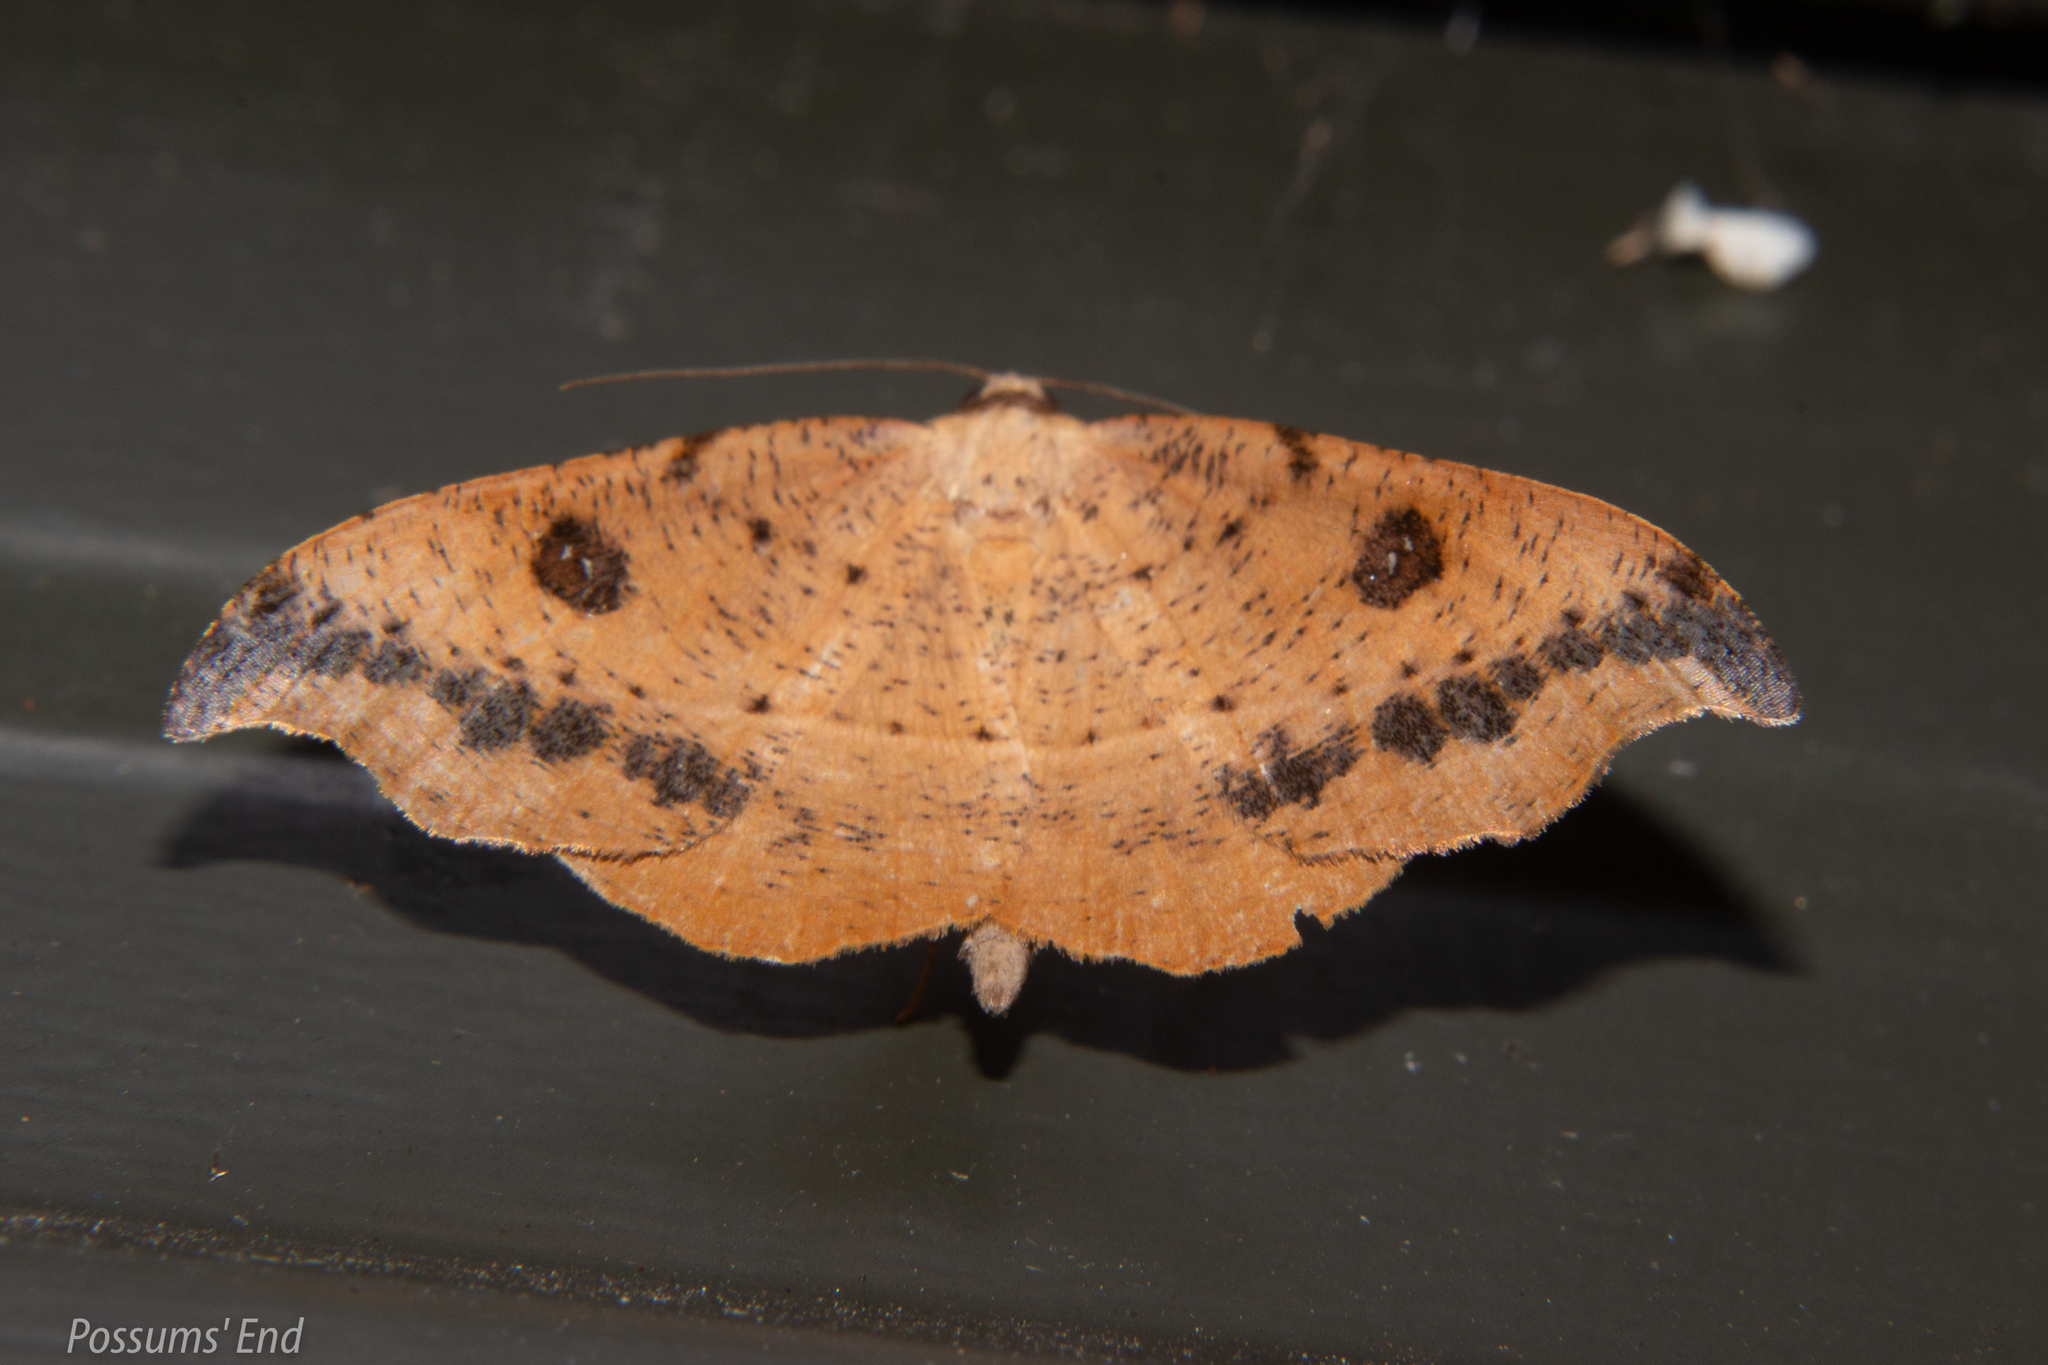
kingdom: Animalia
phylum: Arthropoda
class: Insecta
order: Lepidoptera
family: Geometridae
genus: Sarisa
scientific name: Sarisa muriferata
